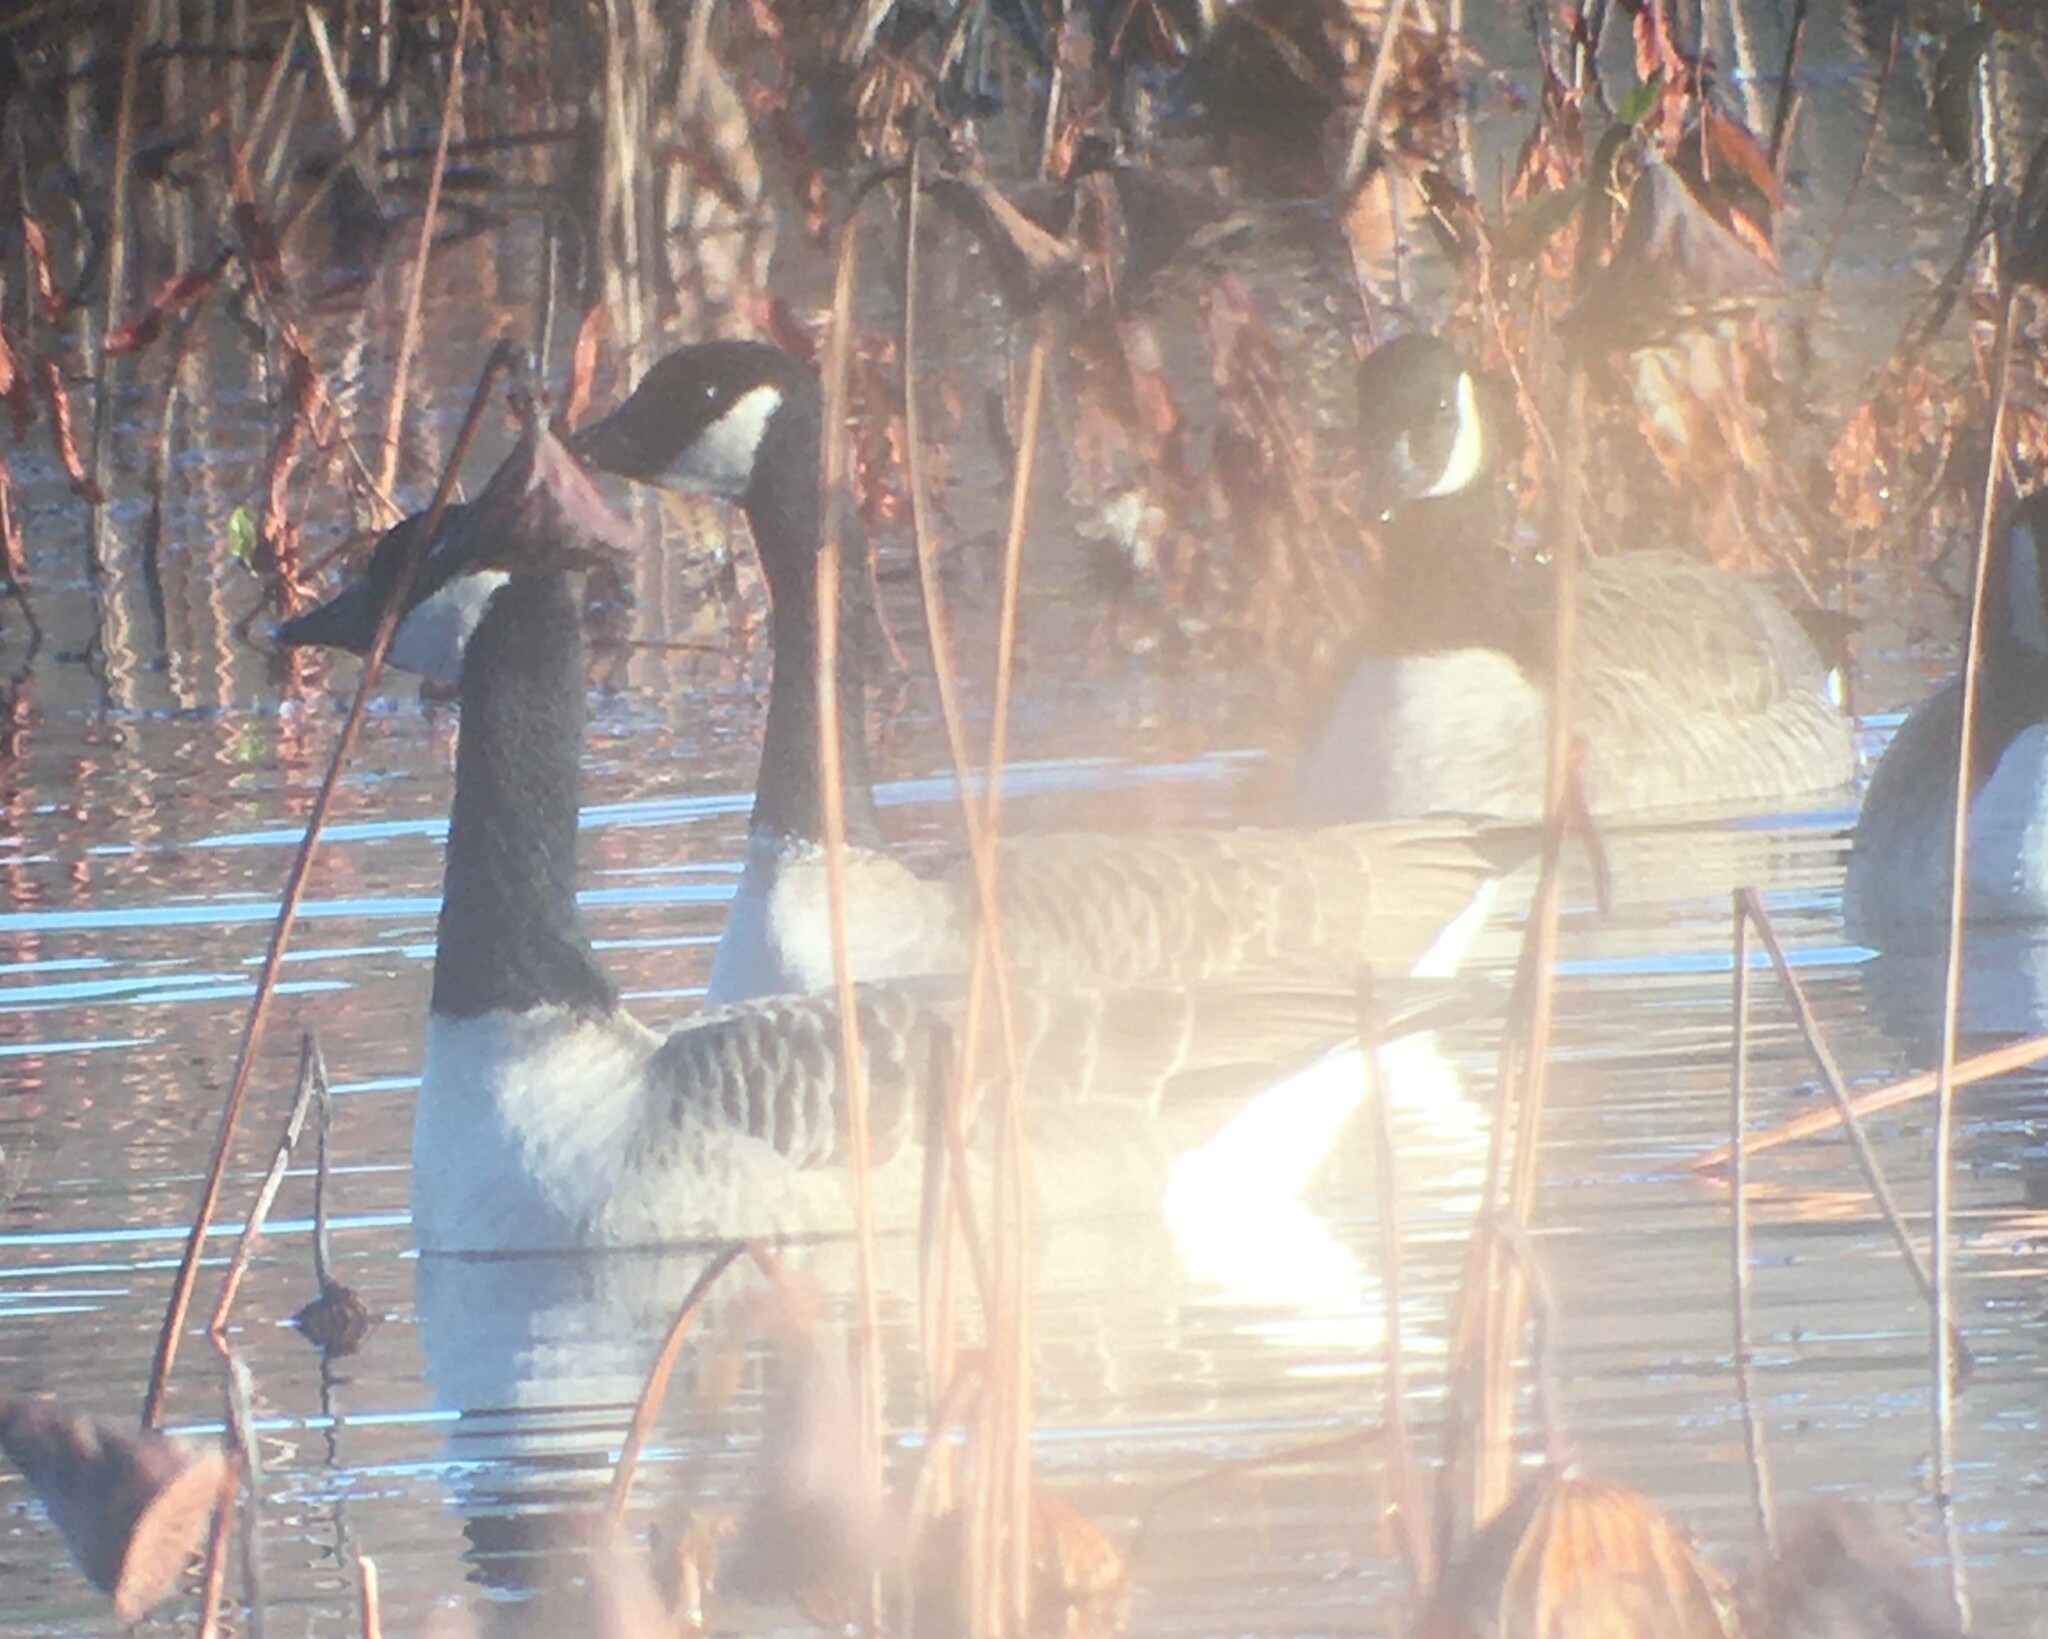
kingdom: Animalia
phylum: Chordata
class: Aves
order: Anseriformes
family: Anatidae
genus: Branta
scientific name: Branta hutchinsii
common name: Cackling goose
